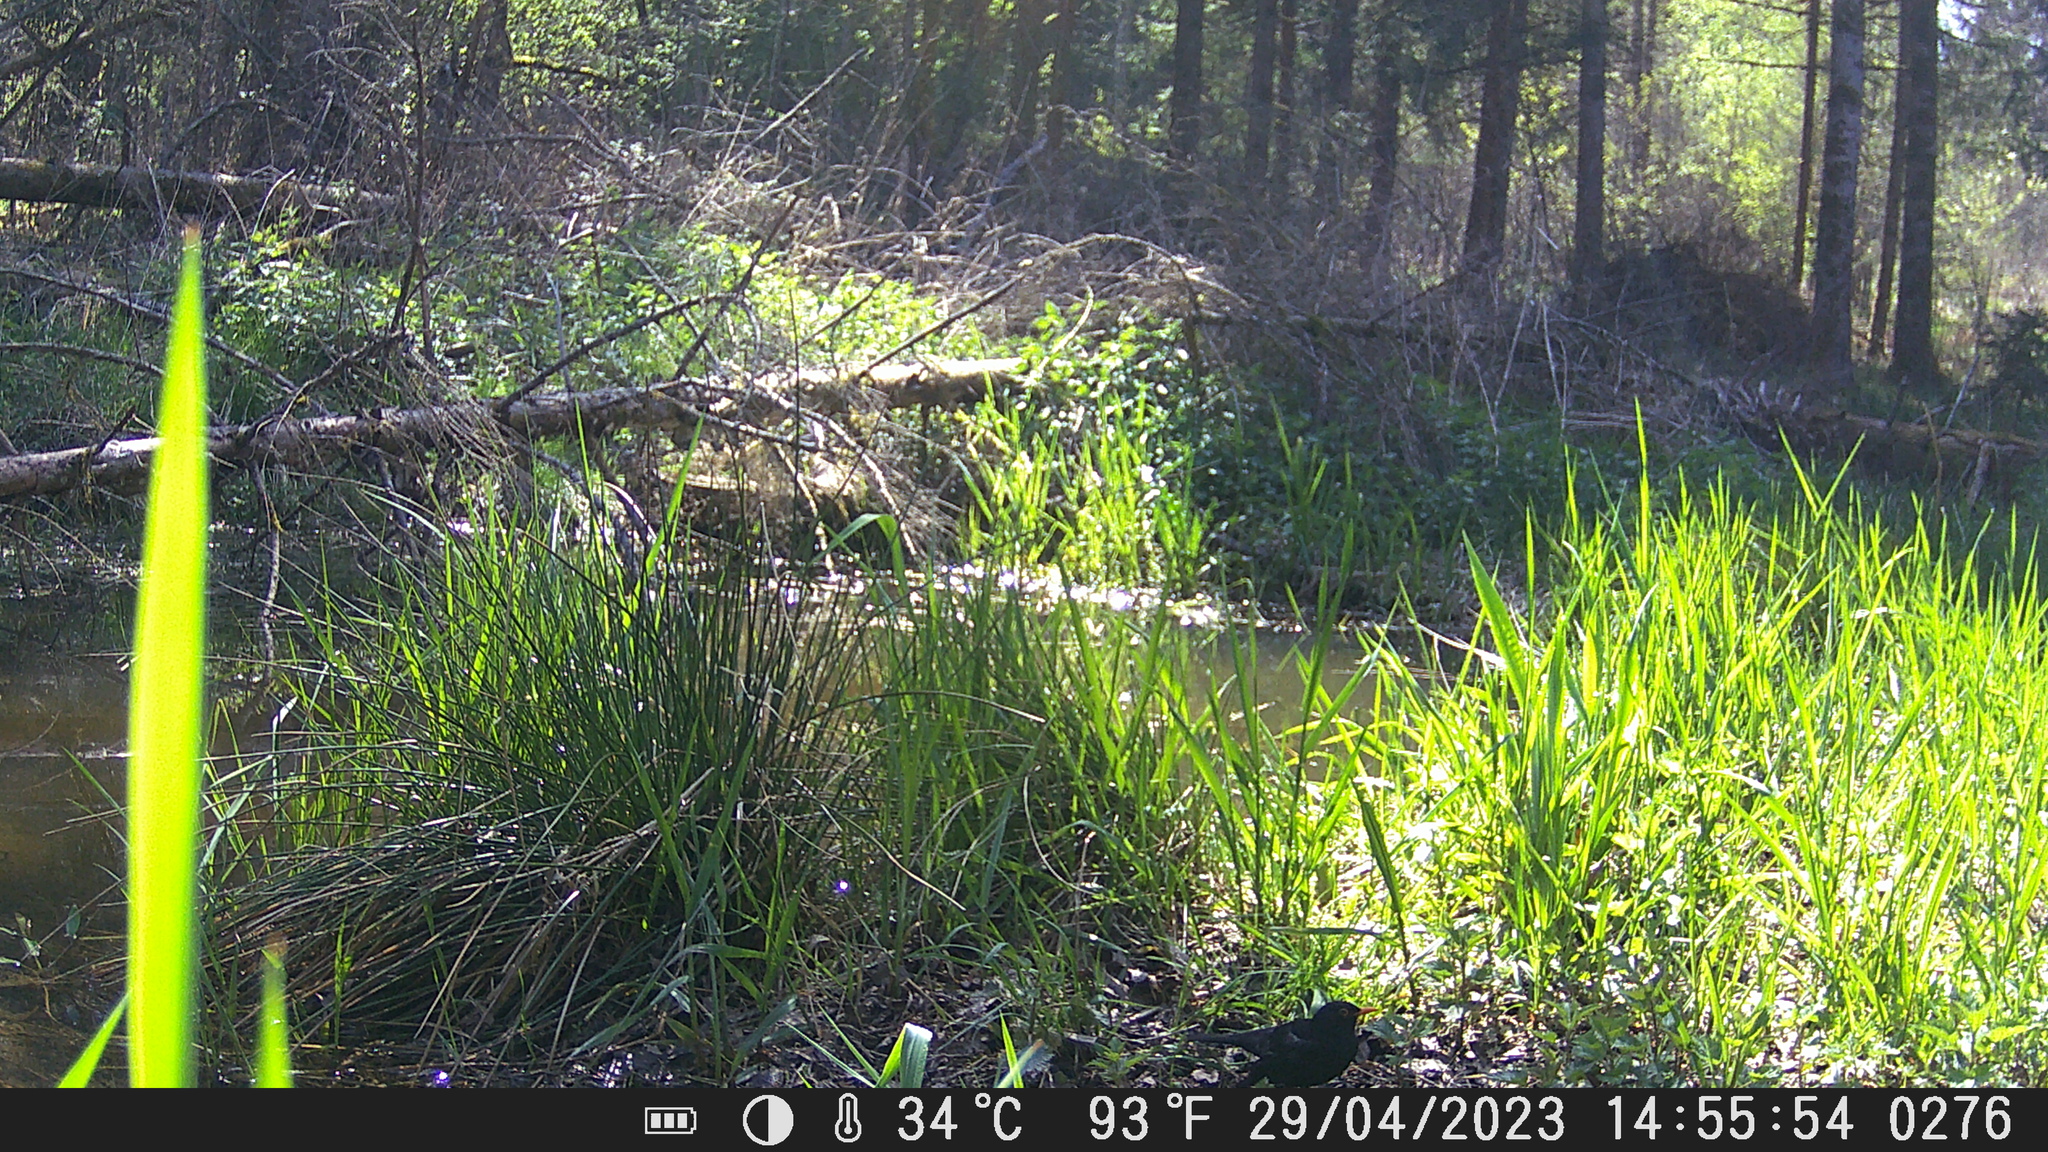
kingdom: Animalia
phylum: Chordata
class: Aves
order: Passeriformes
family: Turdidae
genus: Turdus
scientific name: Turdus merula
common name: Common blackbird
